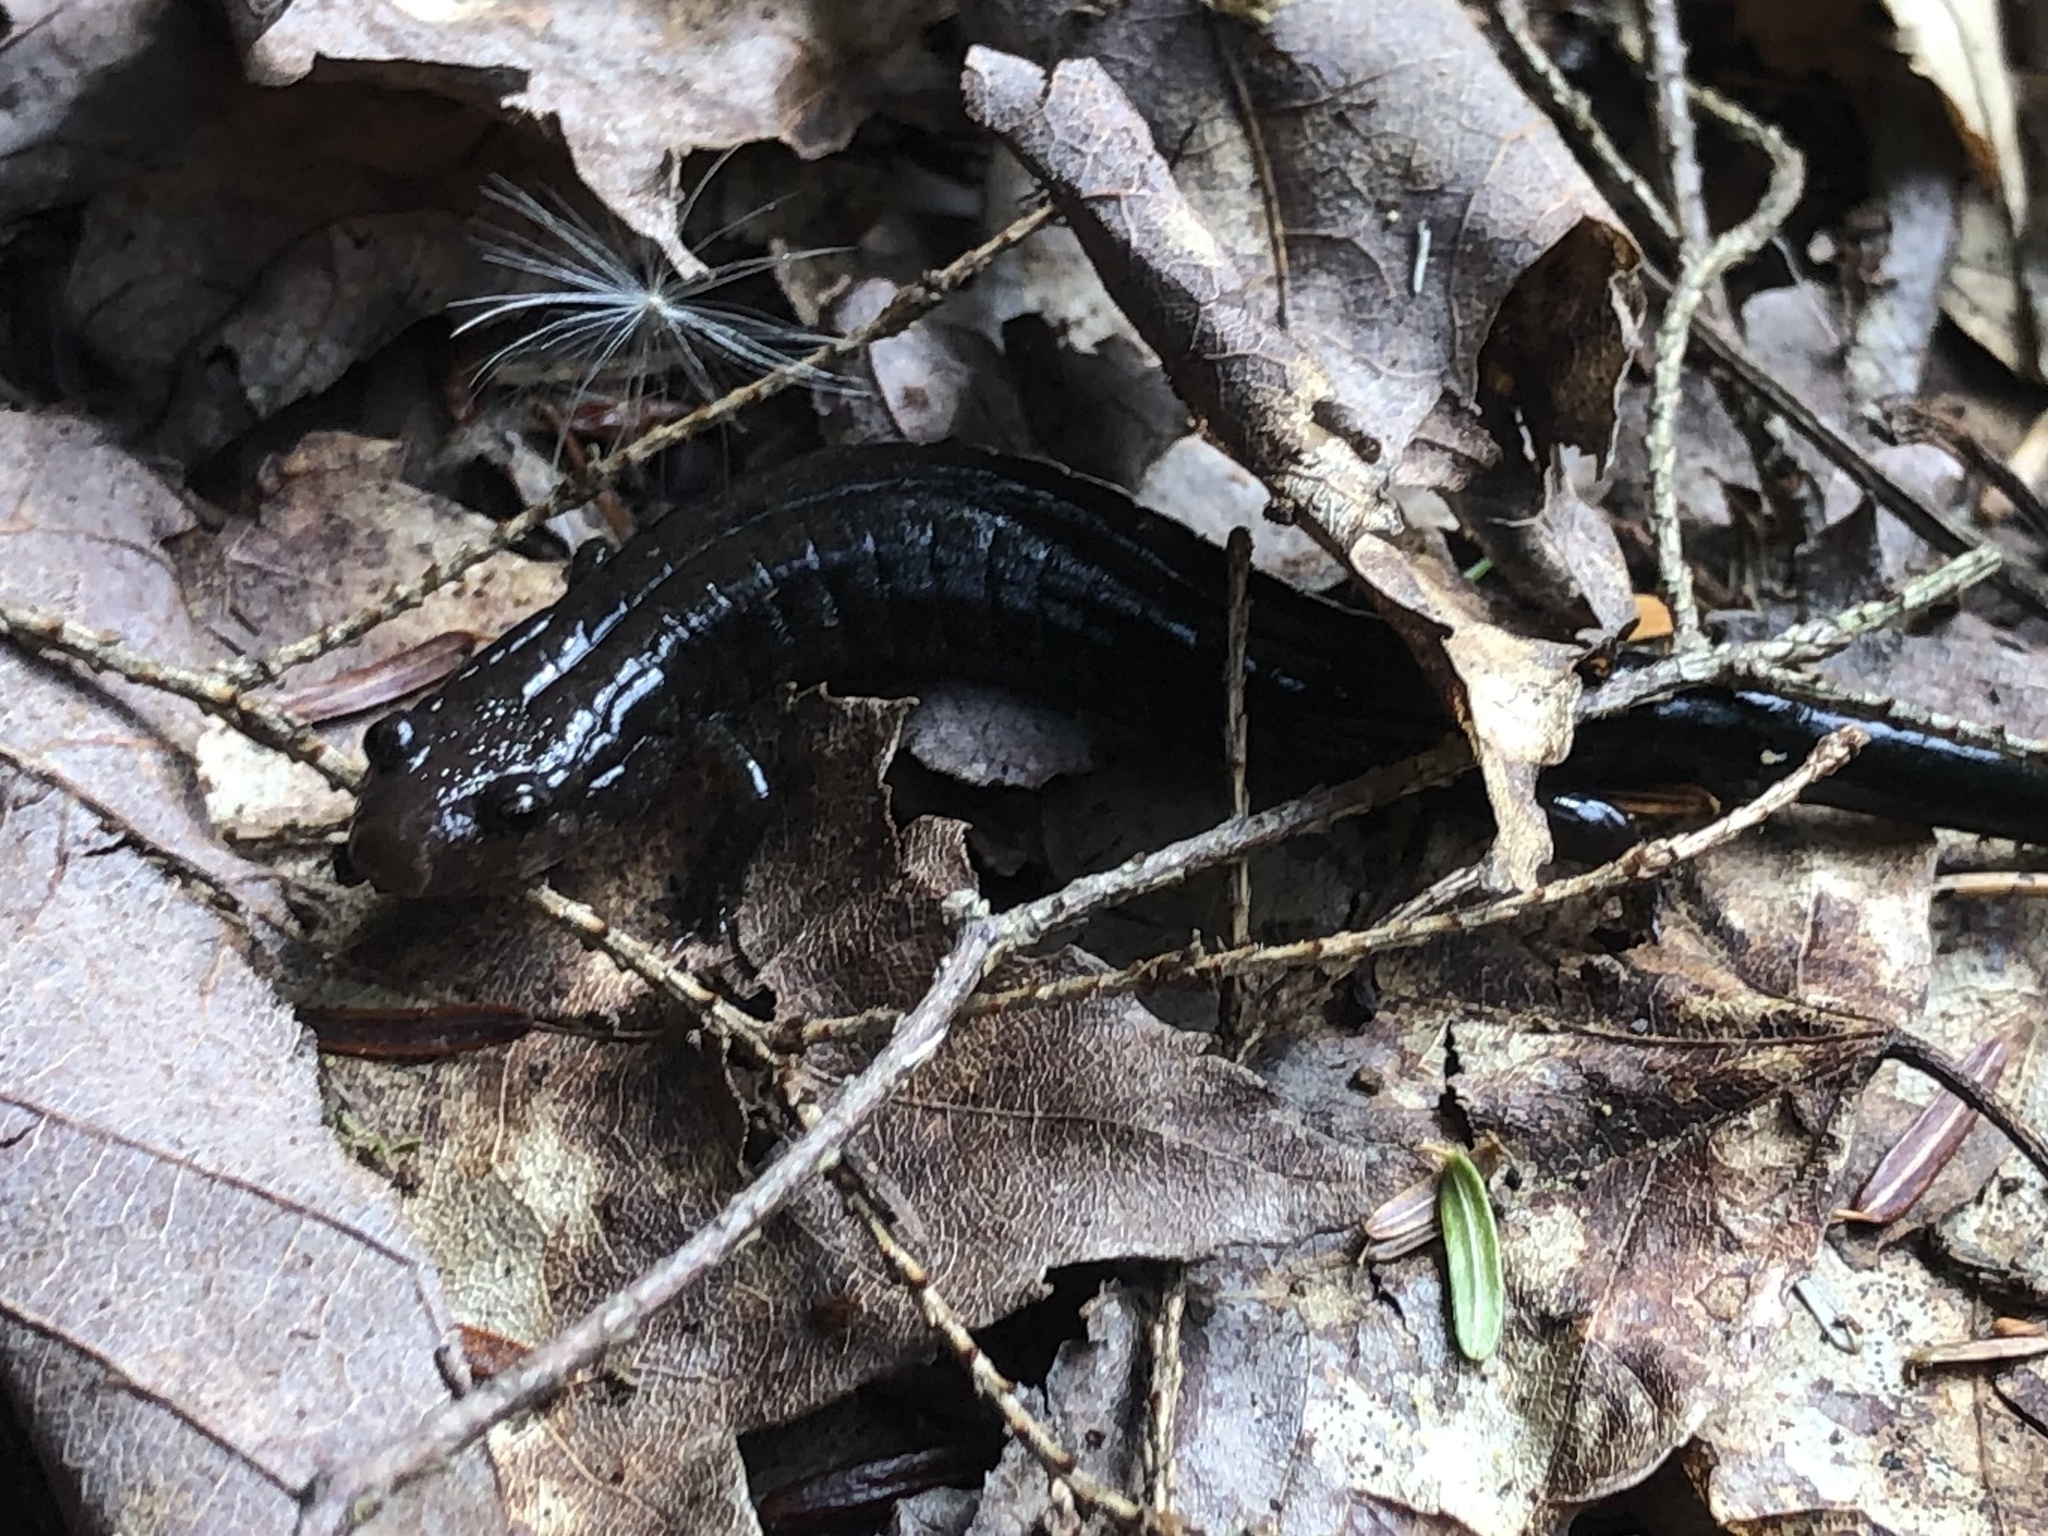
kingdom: Animalia
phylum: Chordata
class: Amphibia
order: Caudata
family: Plethodontidae
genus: Desmognathus
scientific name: Desmognathus ochrophaeus
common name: Allegheny mountain dusky salamander
